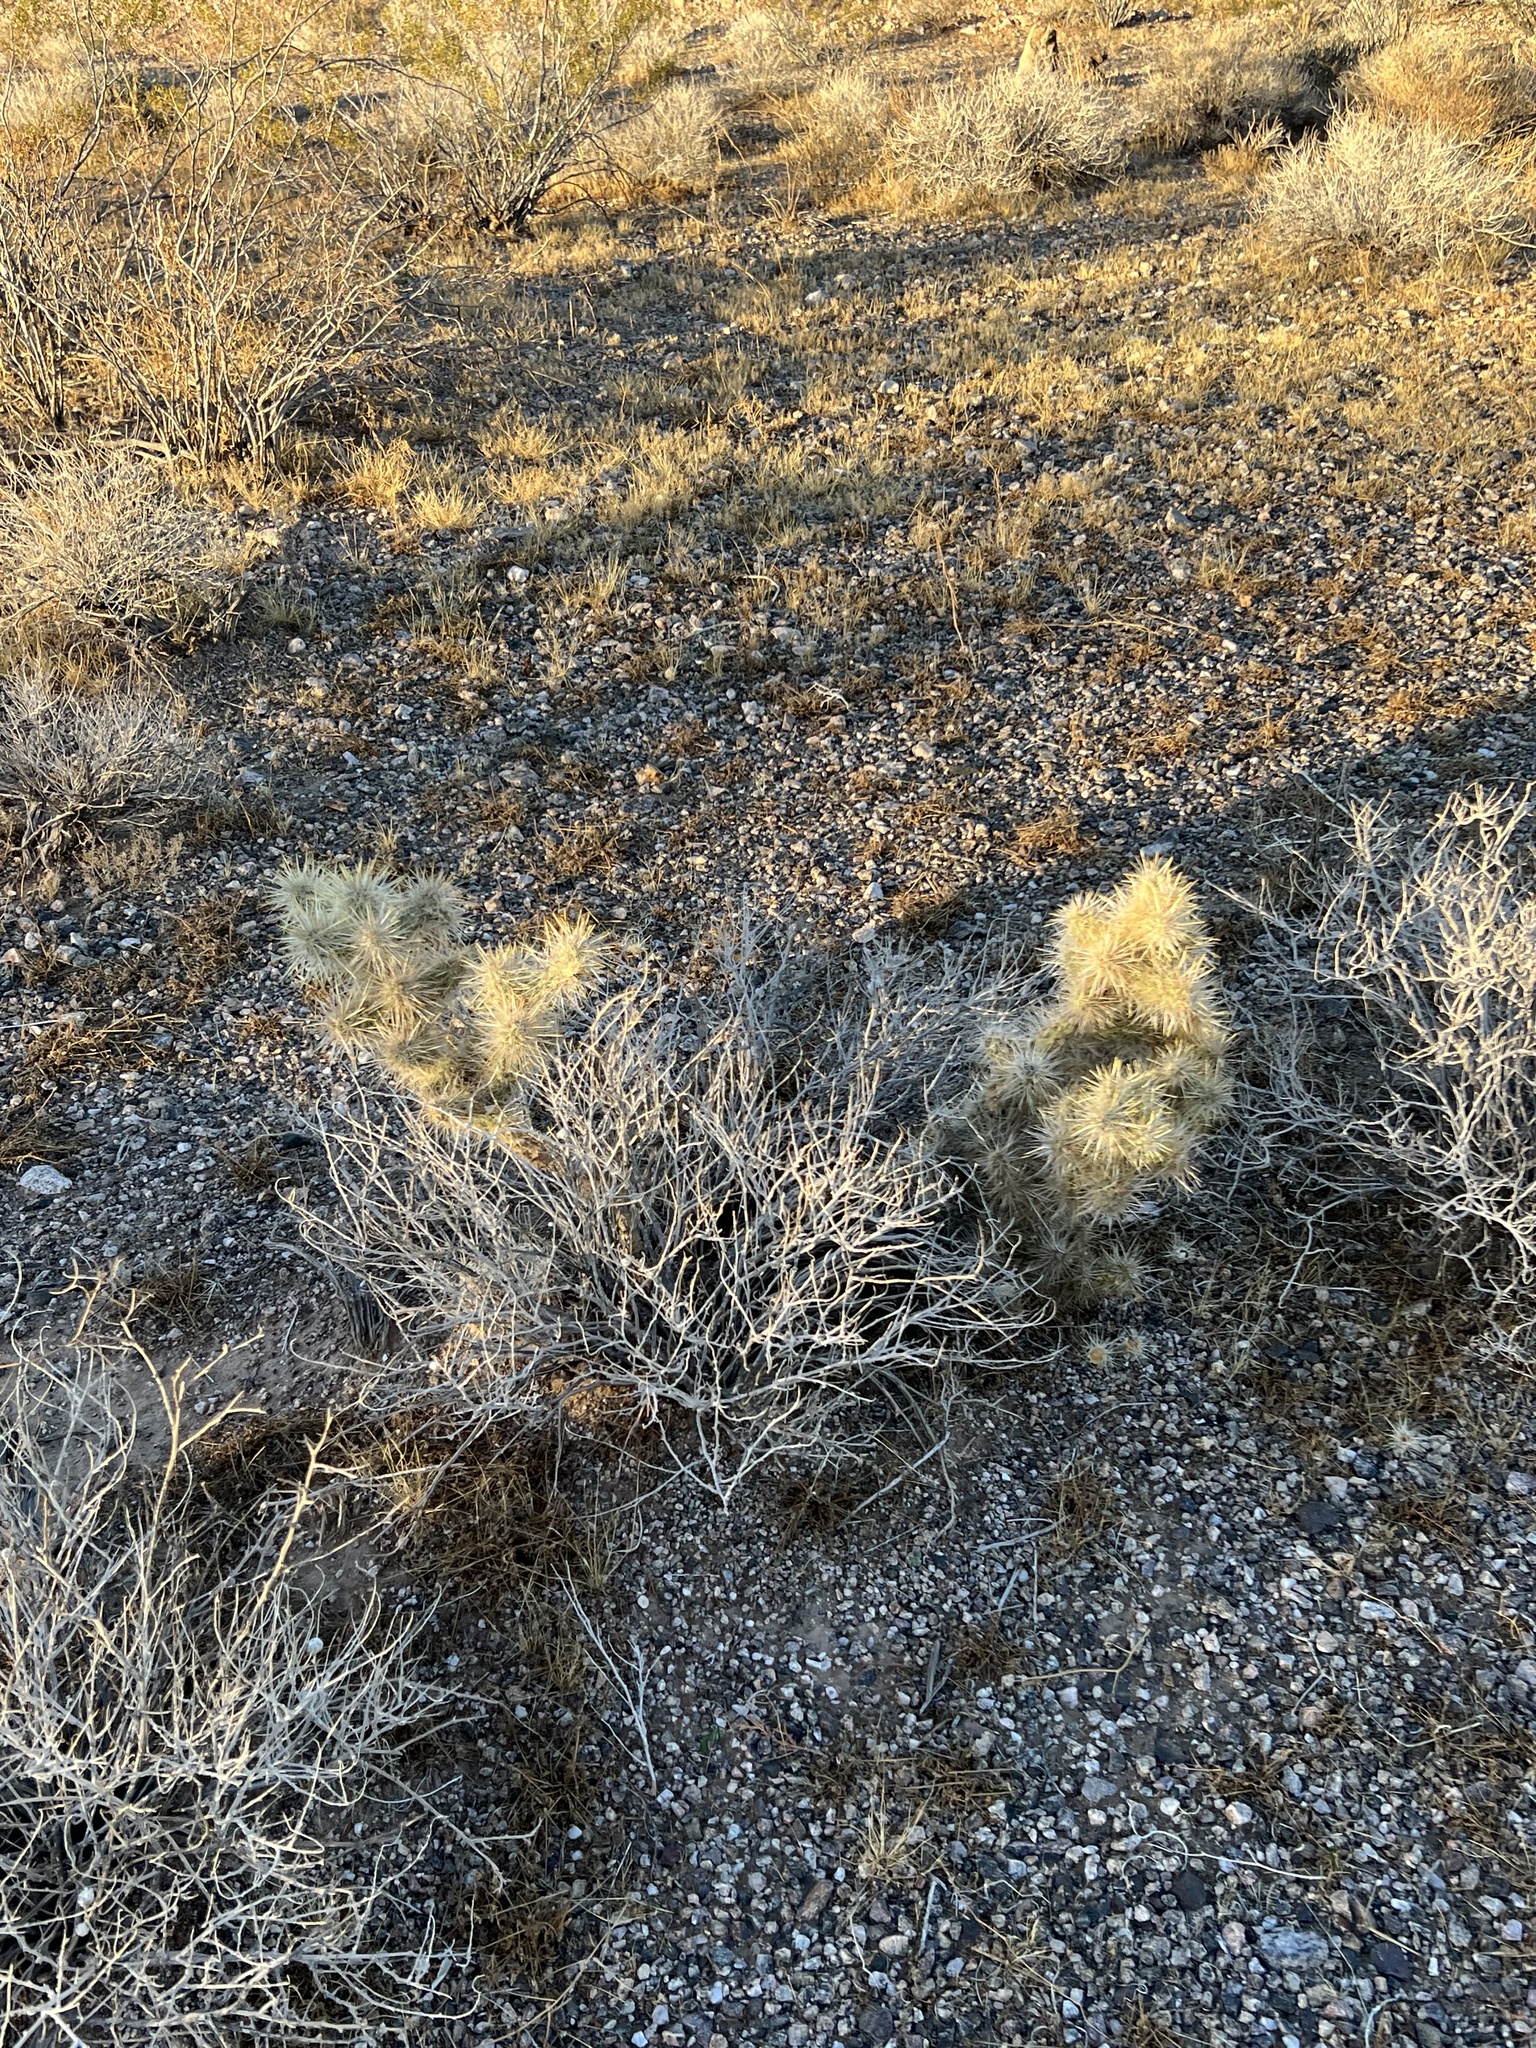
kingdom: Plantae
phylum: Tracheophyta
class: Magnoliopsida
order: Caryophyllales
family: Cactaceae
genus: Cylindropuntia
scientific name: Cylindropuntia echinocarpa
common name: Ground cholla
